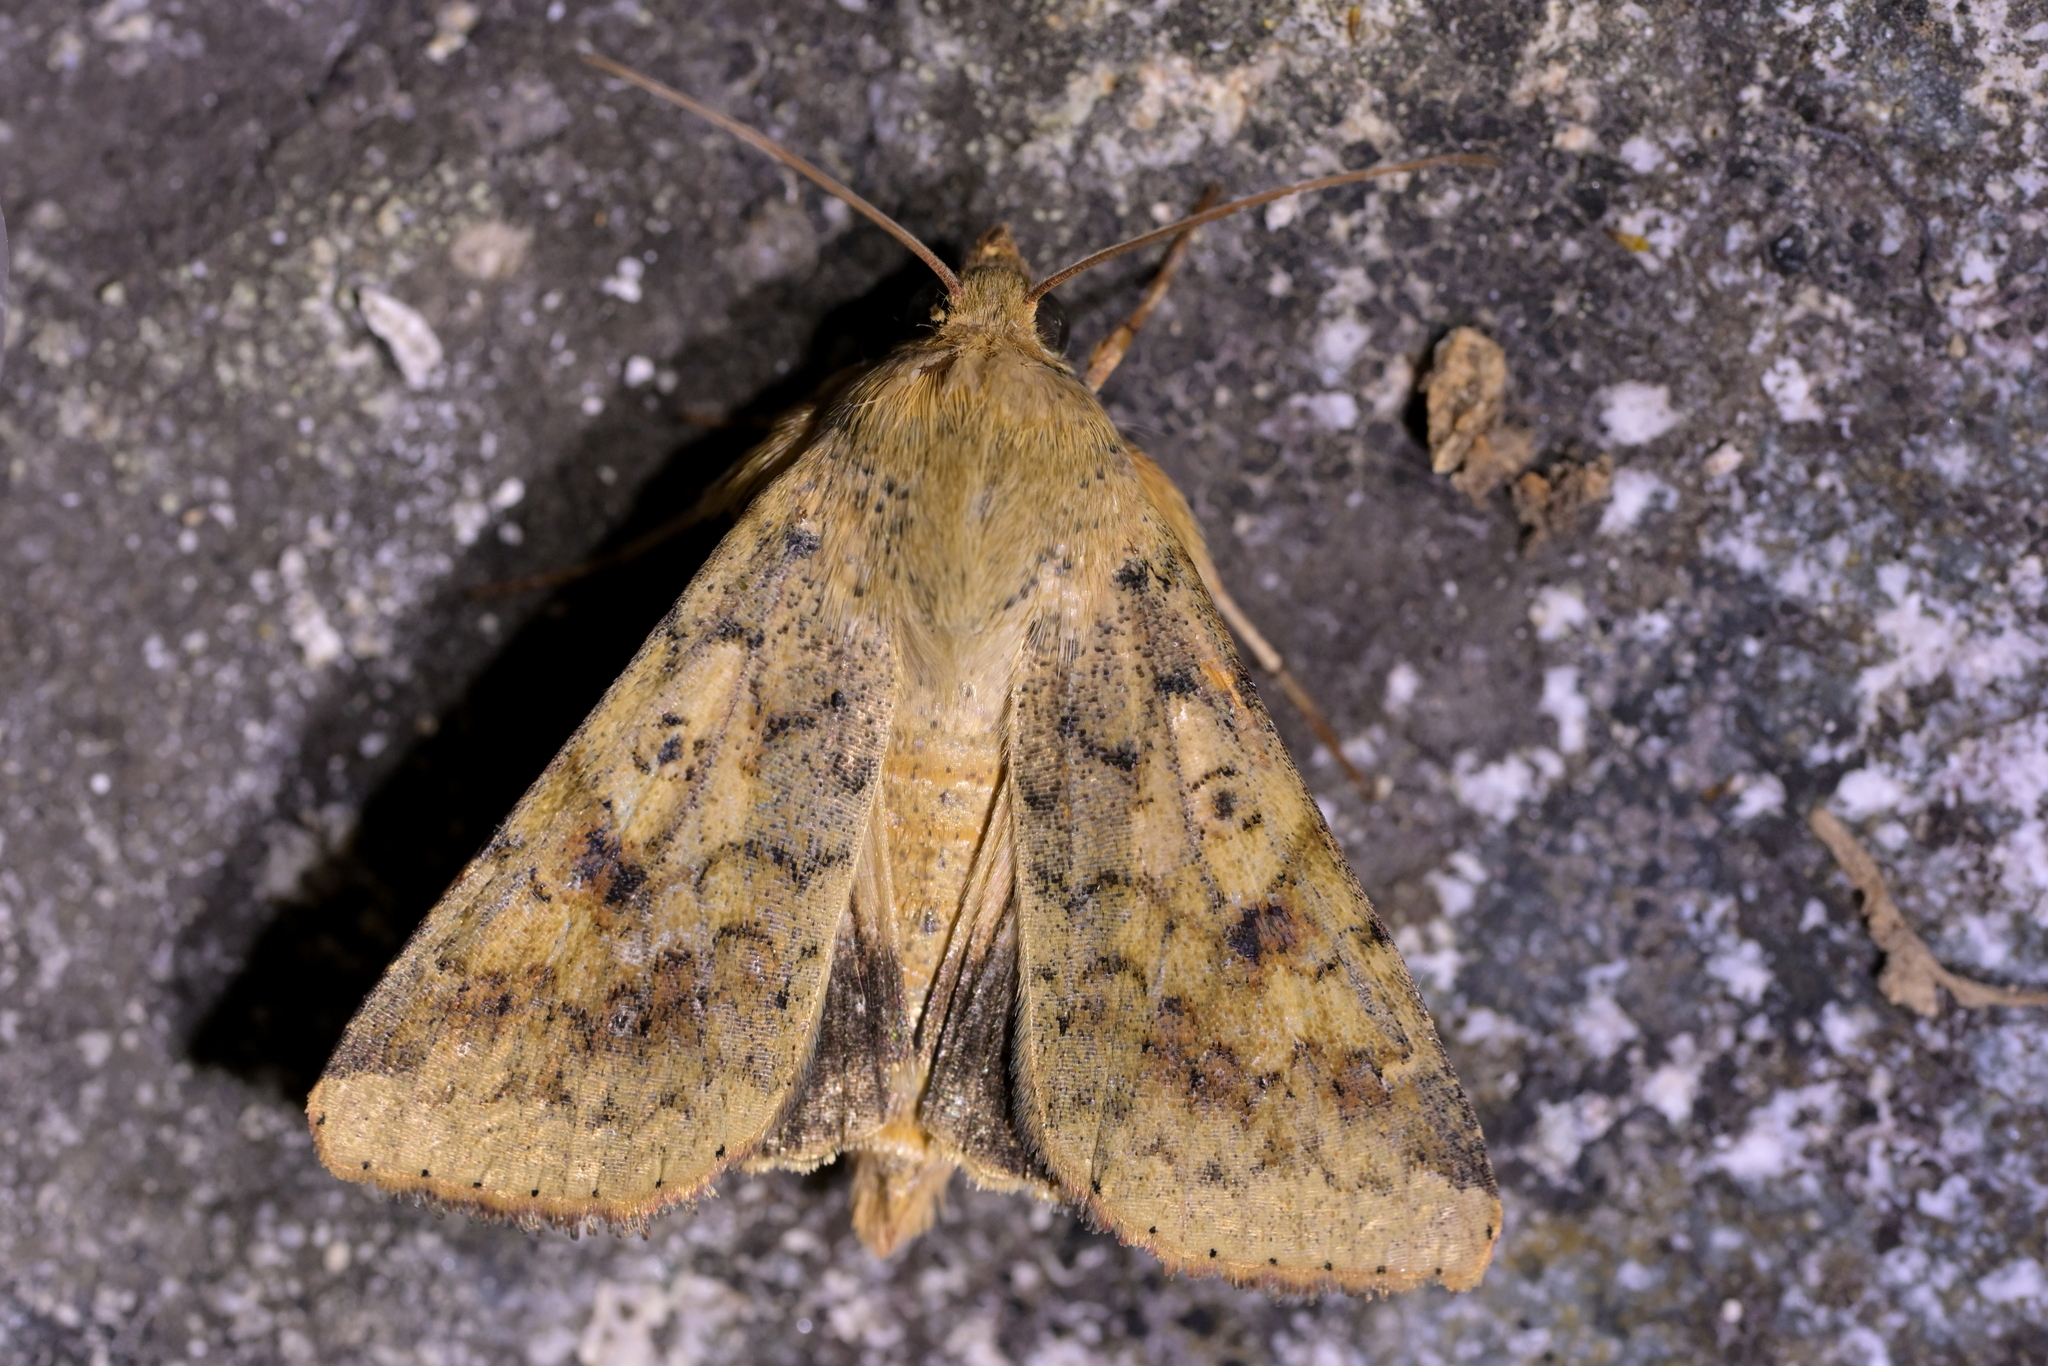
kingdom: Animalia
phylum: Arthropoda
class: Insecta
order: Lepidoptera
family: Noctuidae
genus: Helicoverpa
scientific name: Helicoverpa armigera
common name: Cotton bollworm
